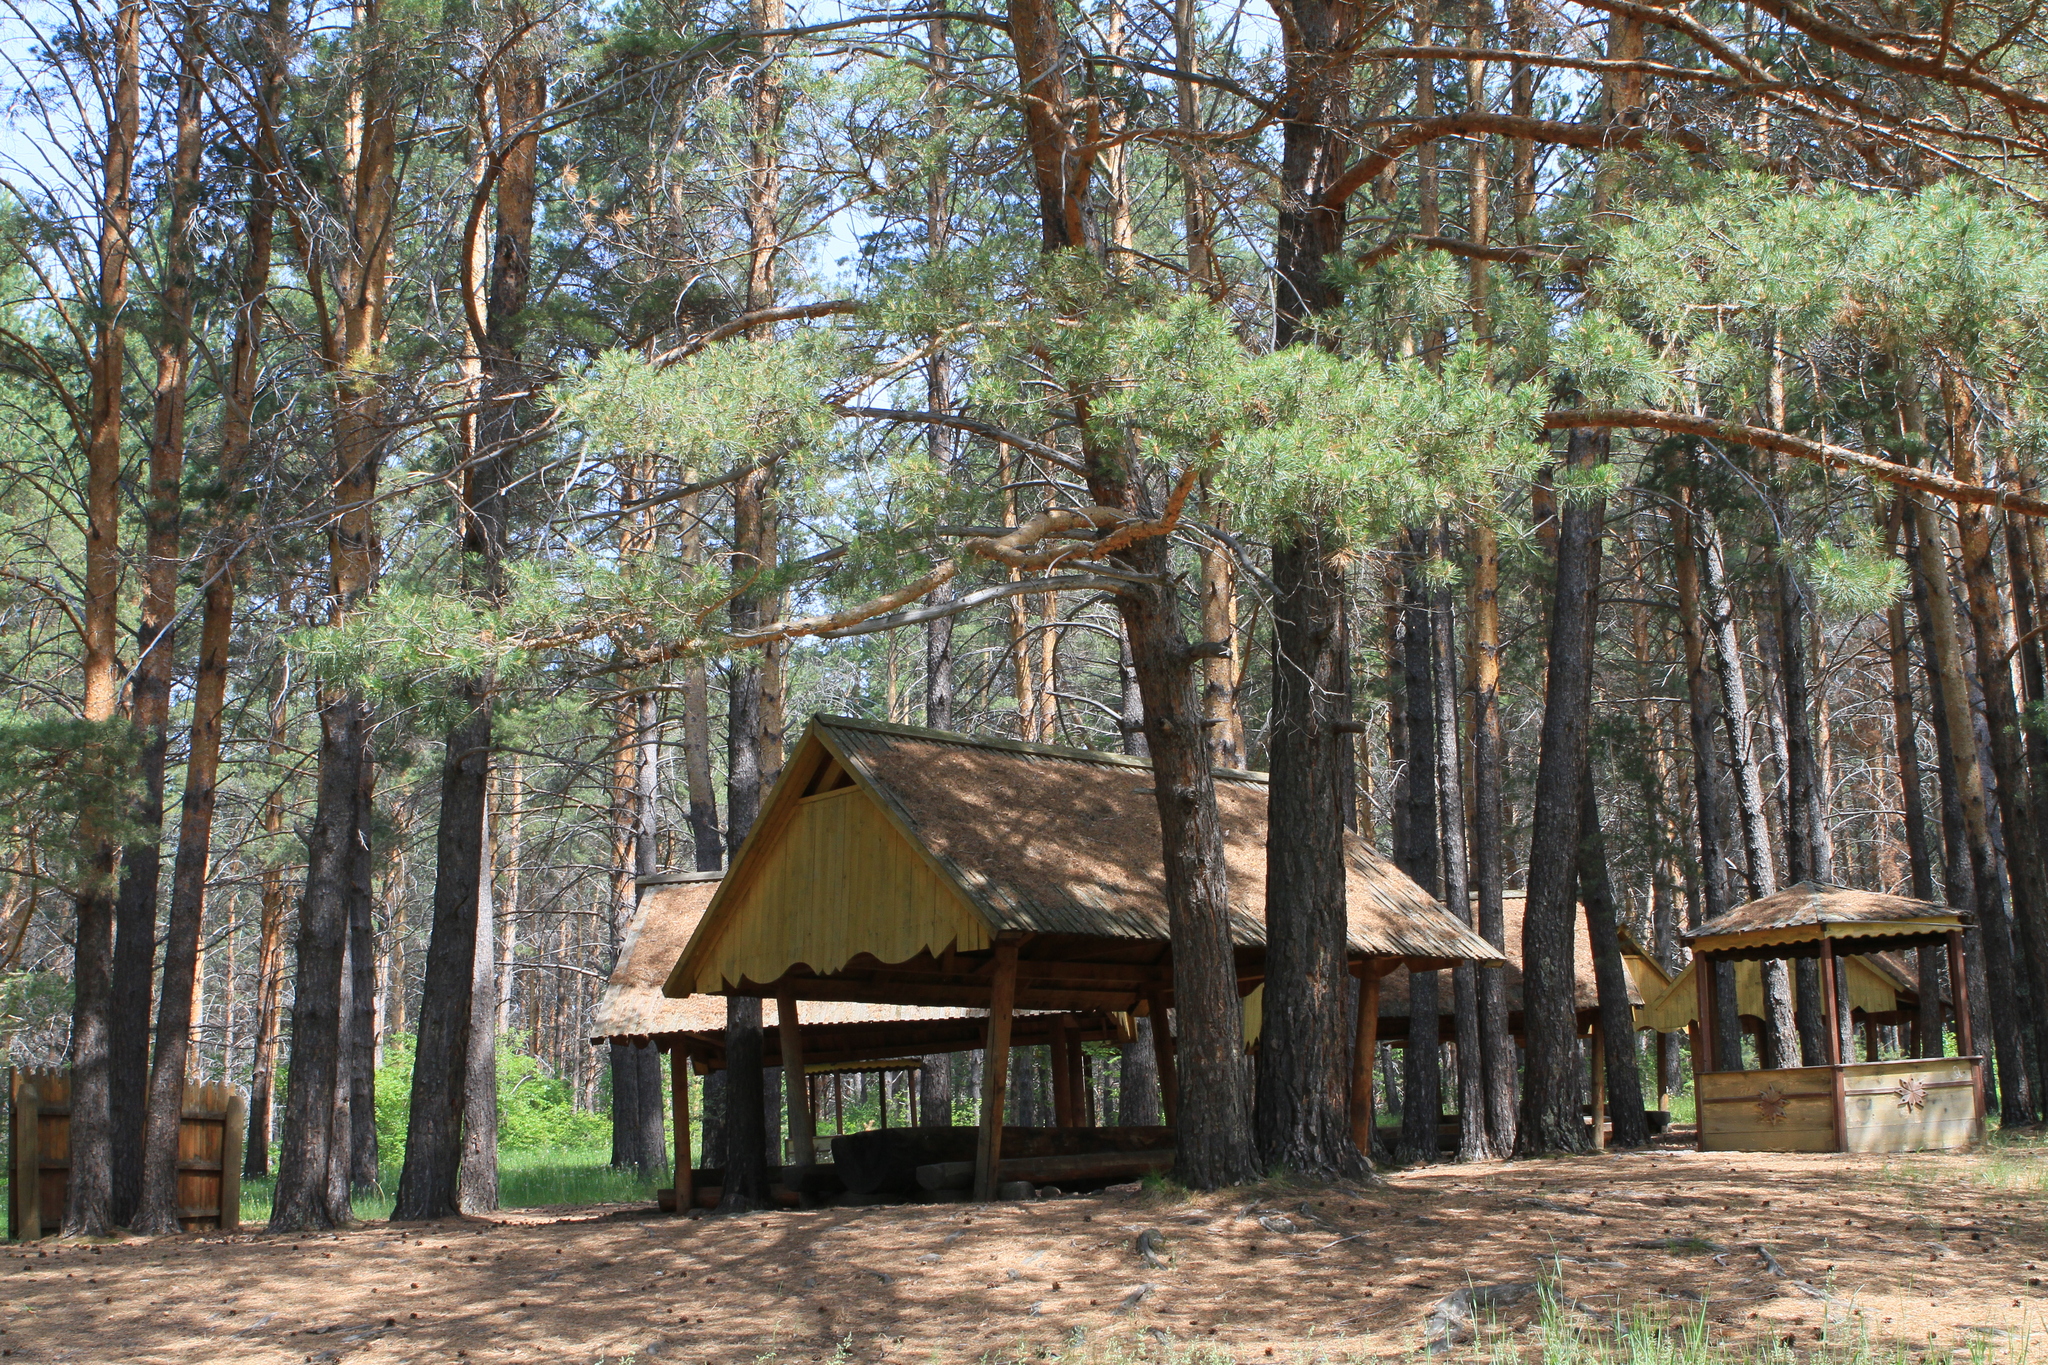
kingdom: Plantae
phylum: Tracheophyta
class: Pinopsida
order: Pinales
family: Pinaceae
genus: Pinus
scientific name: Pinus sylvestris
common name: Scots pine
